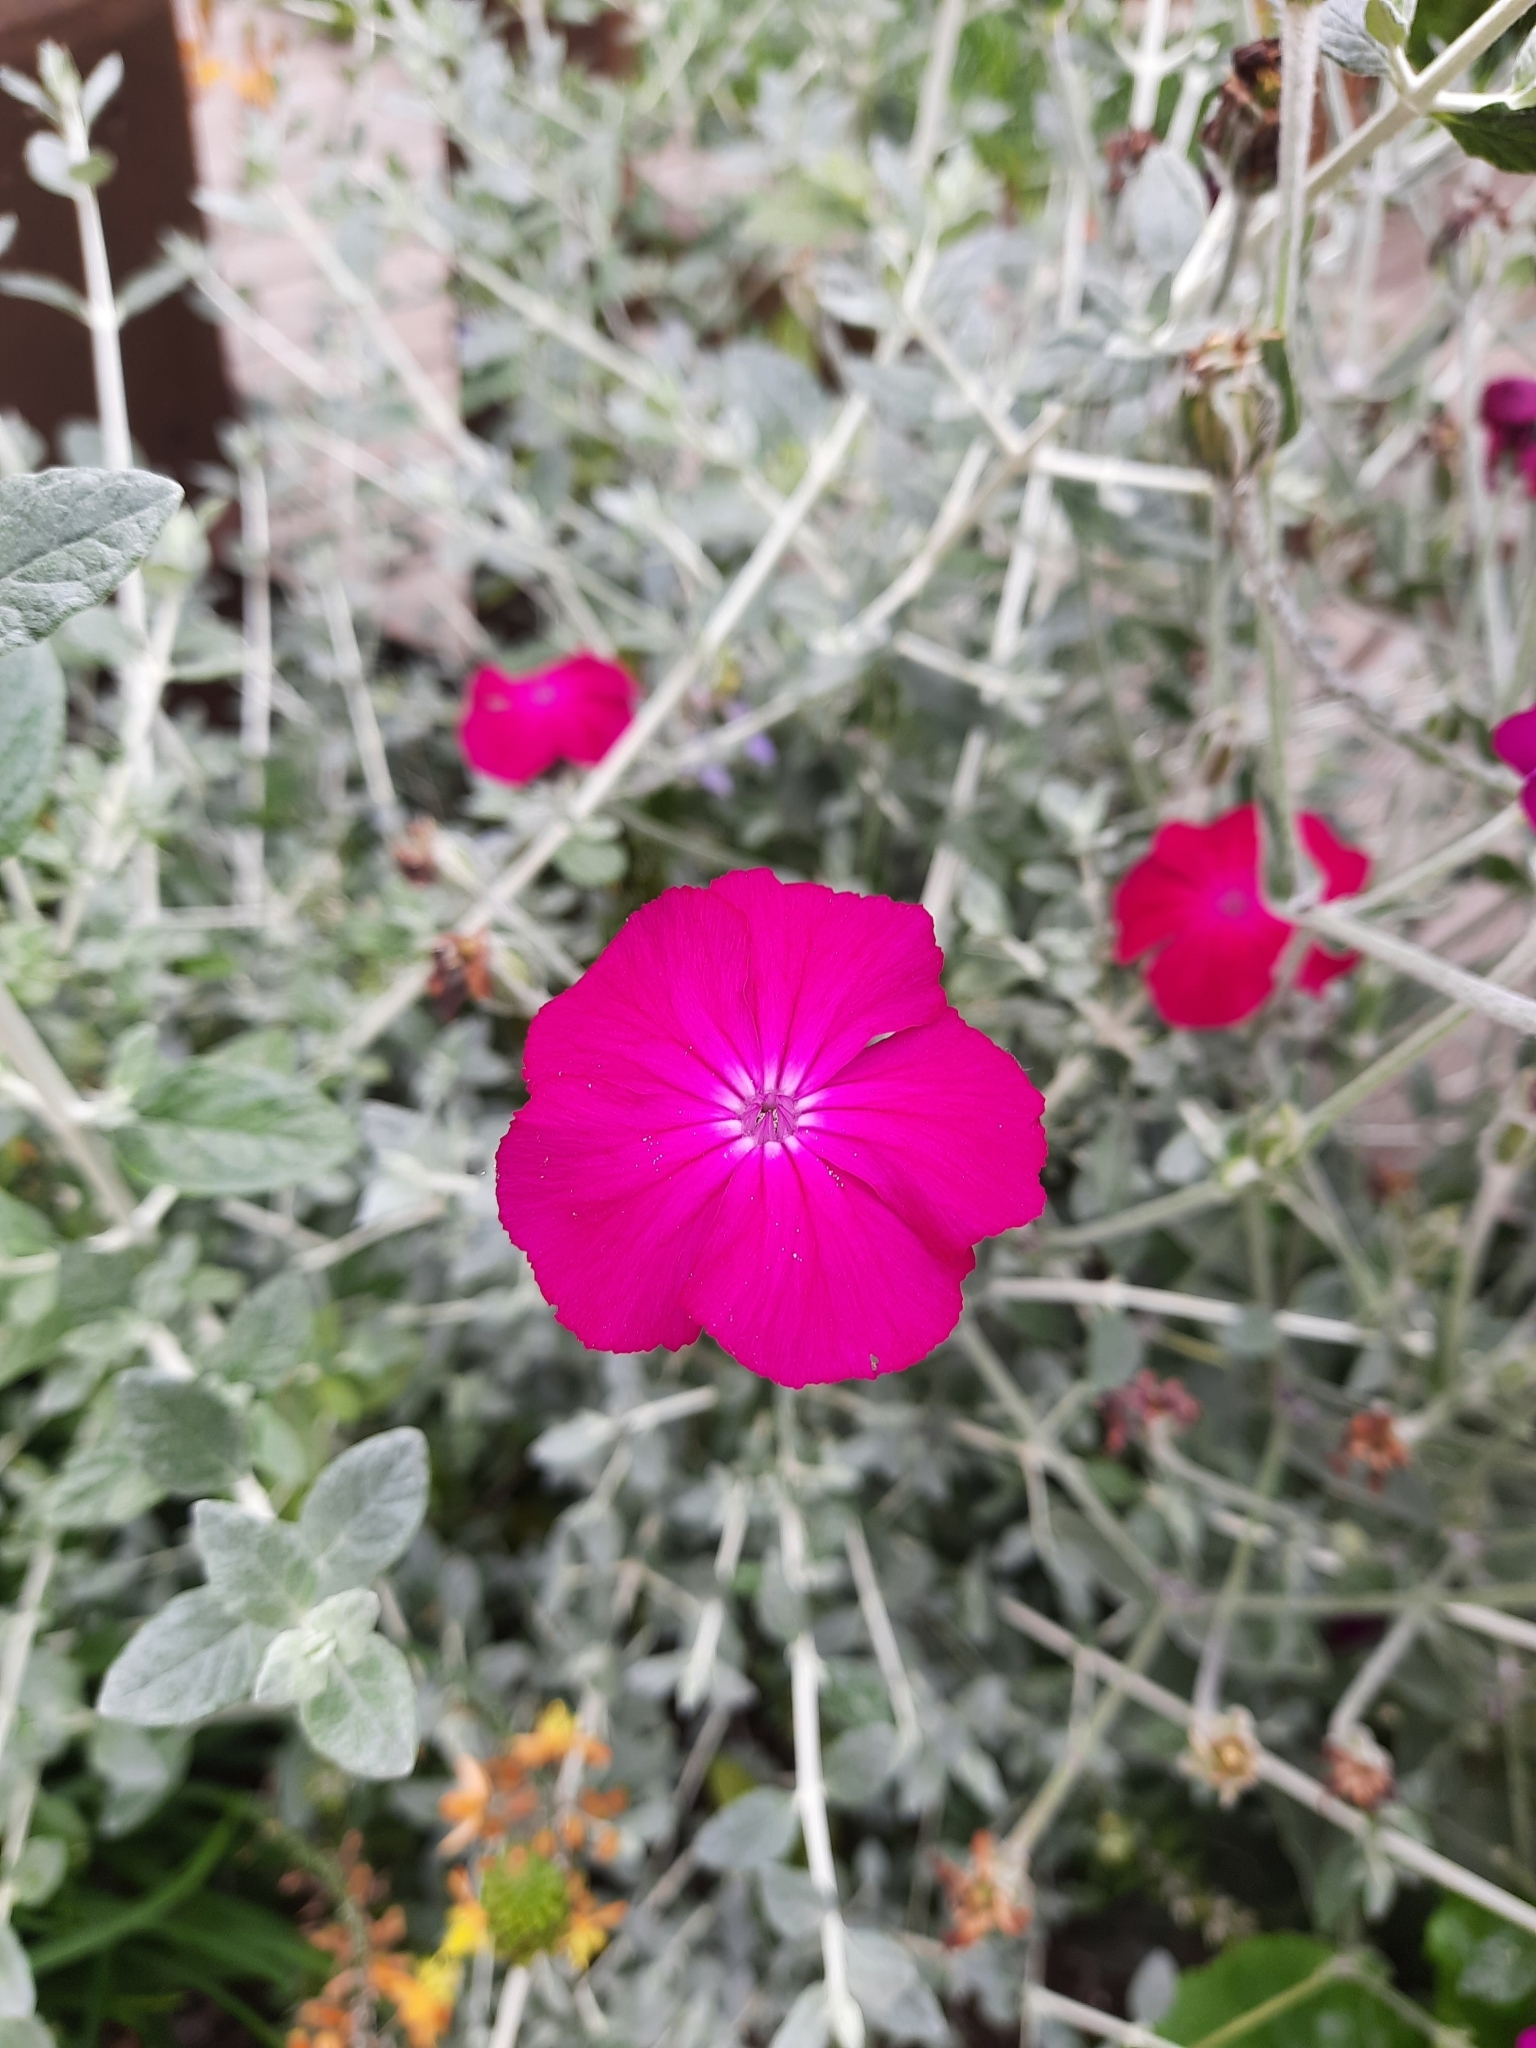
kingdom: Plantae
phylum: Tracheophyta
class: Magnoliopsida
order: Caryophyllales
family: Caryophyllaceae
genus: Silene
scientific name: Silene coronaria
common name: Rose campion
